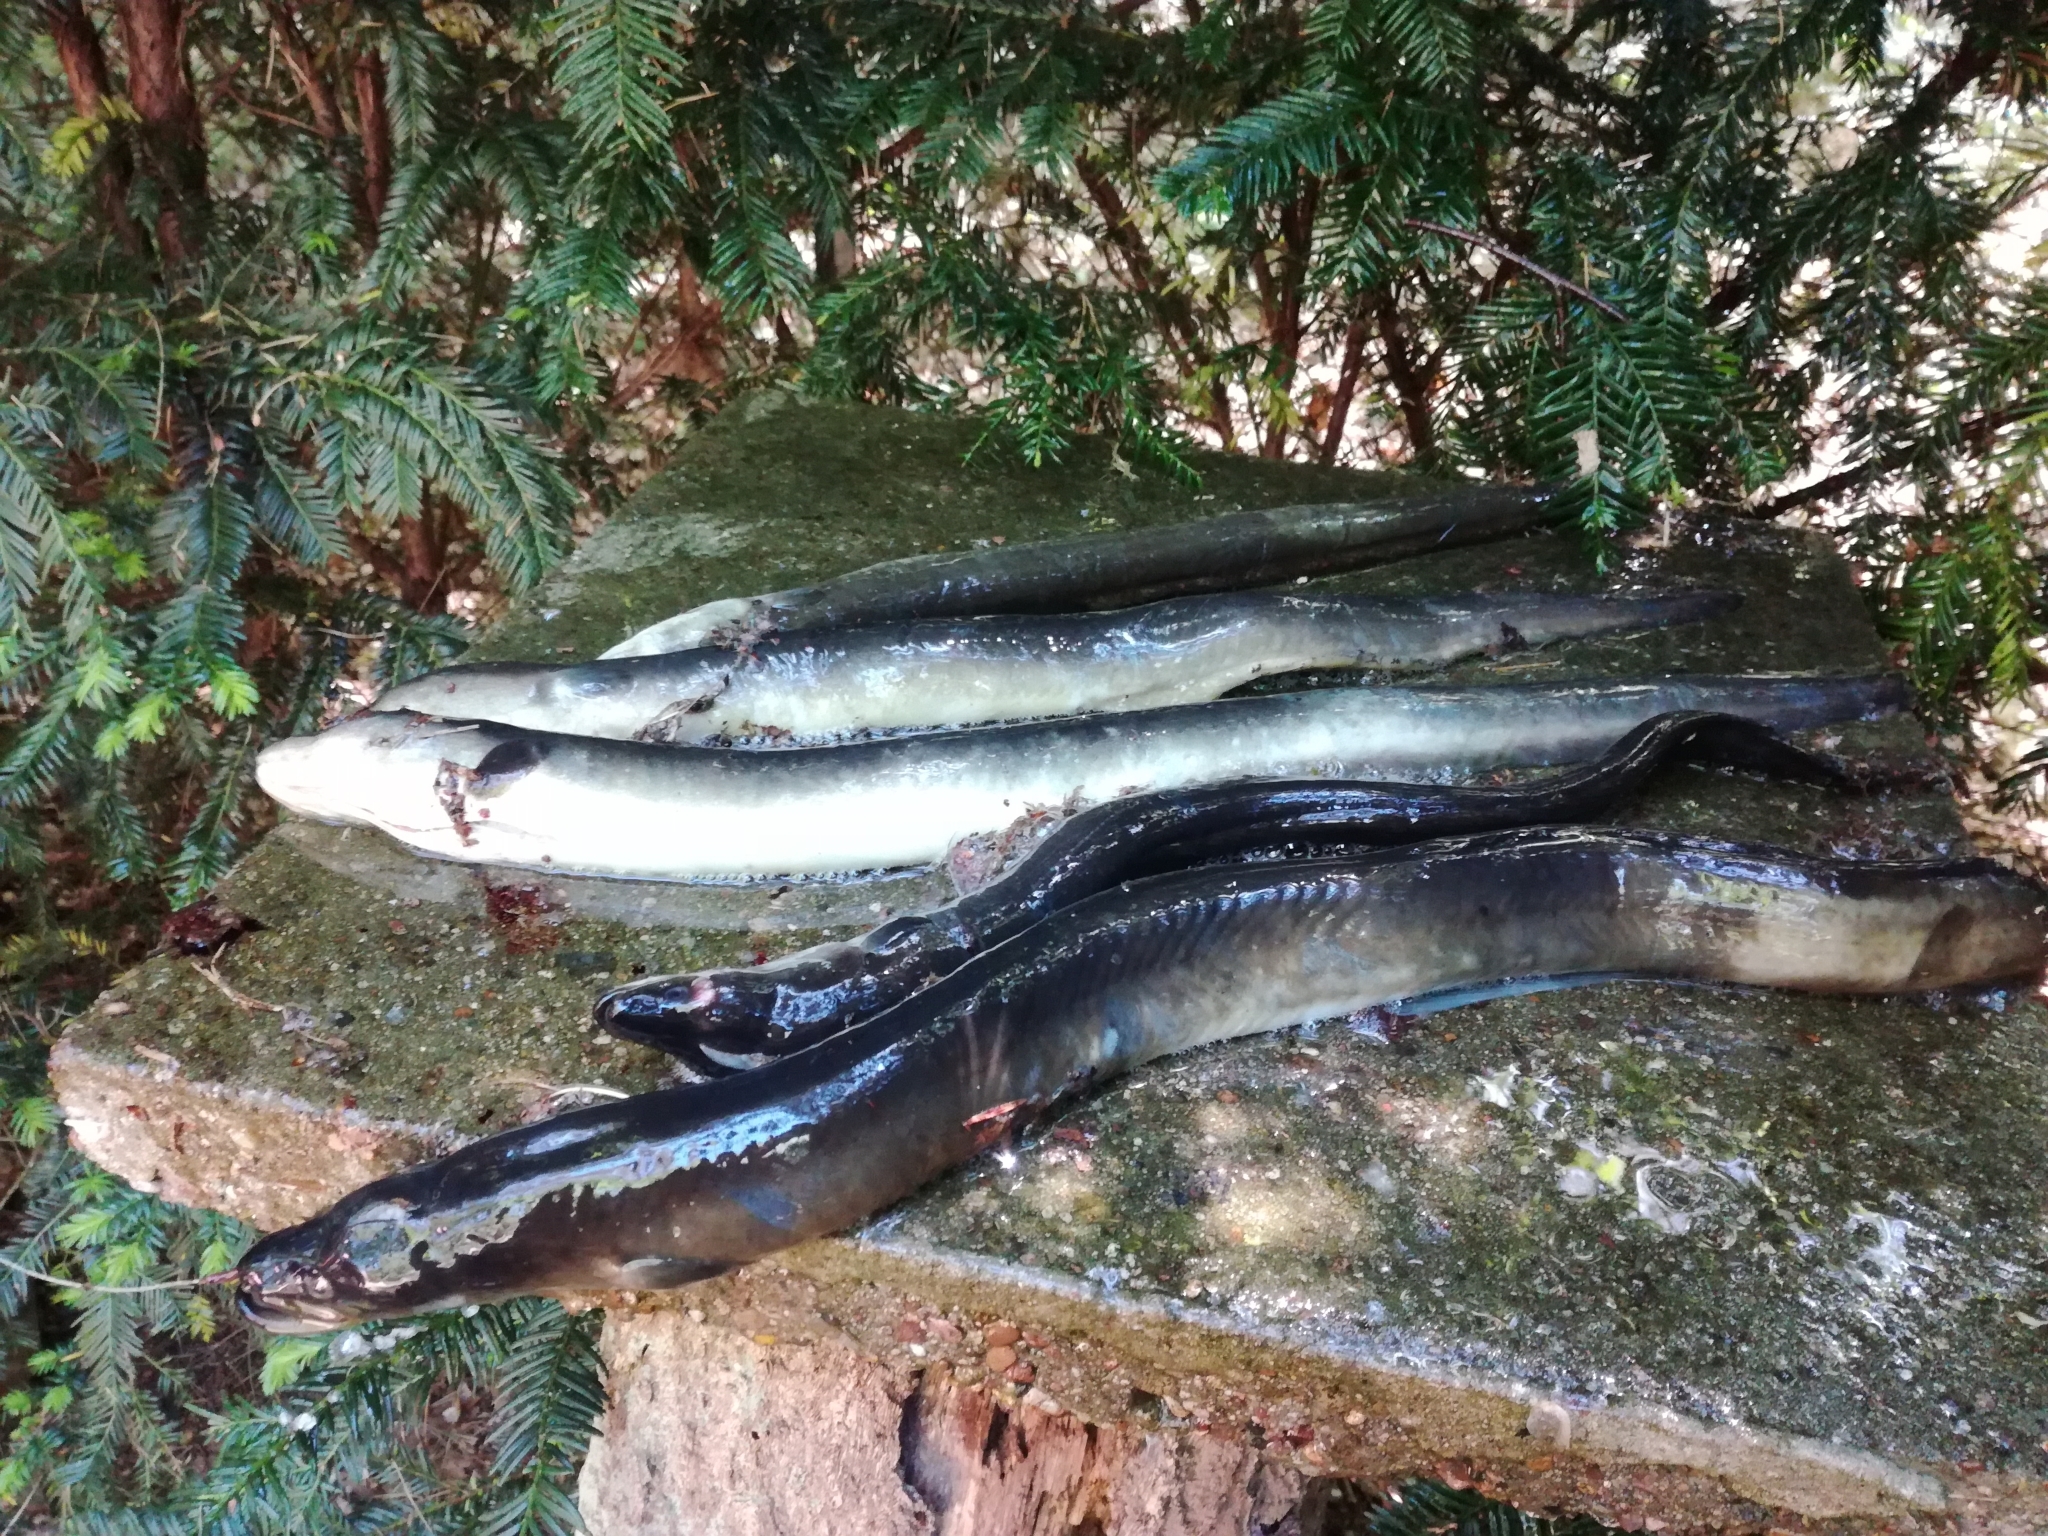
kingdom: Animalia
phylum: Chordata
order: Anguilliformes
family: Anguillidae
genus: Anguilla
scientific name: Anguilla anguilla
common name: European eel
